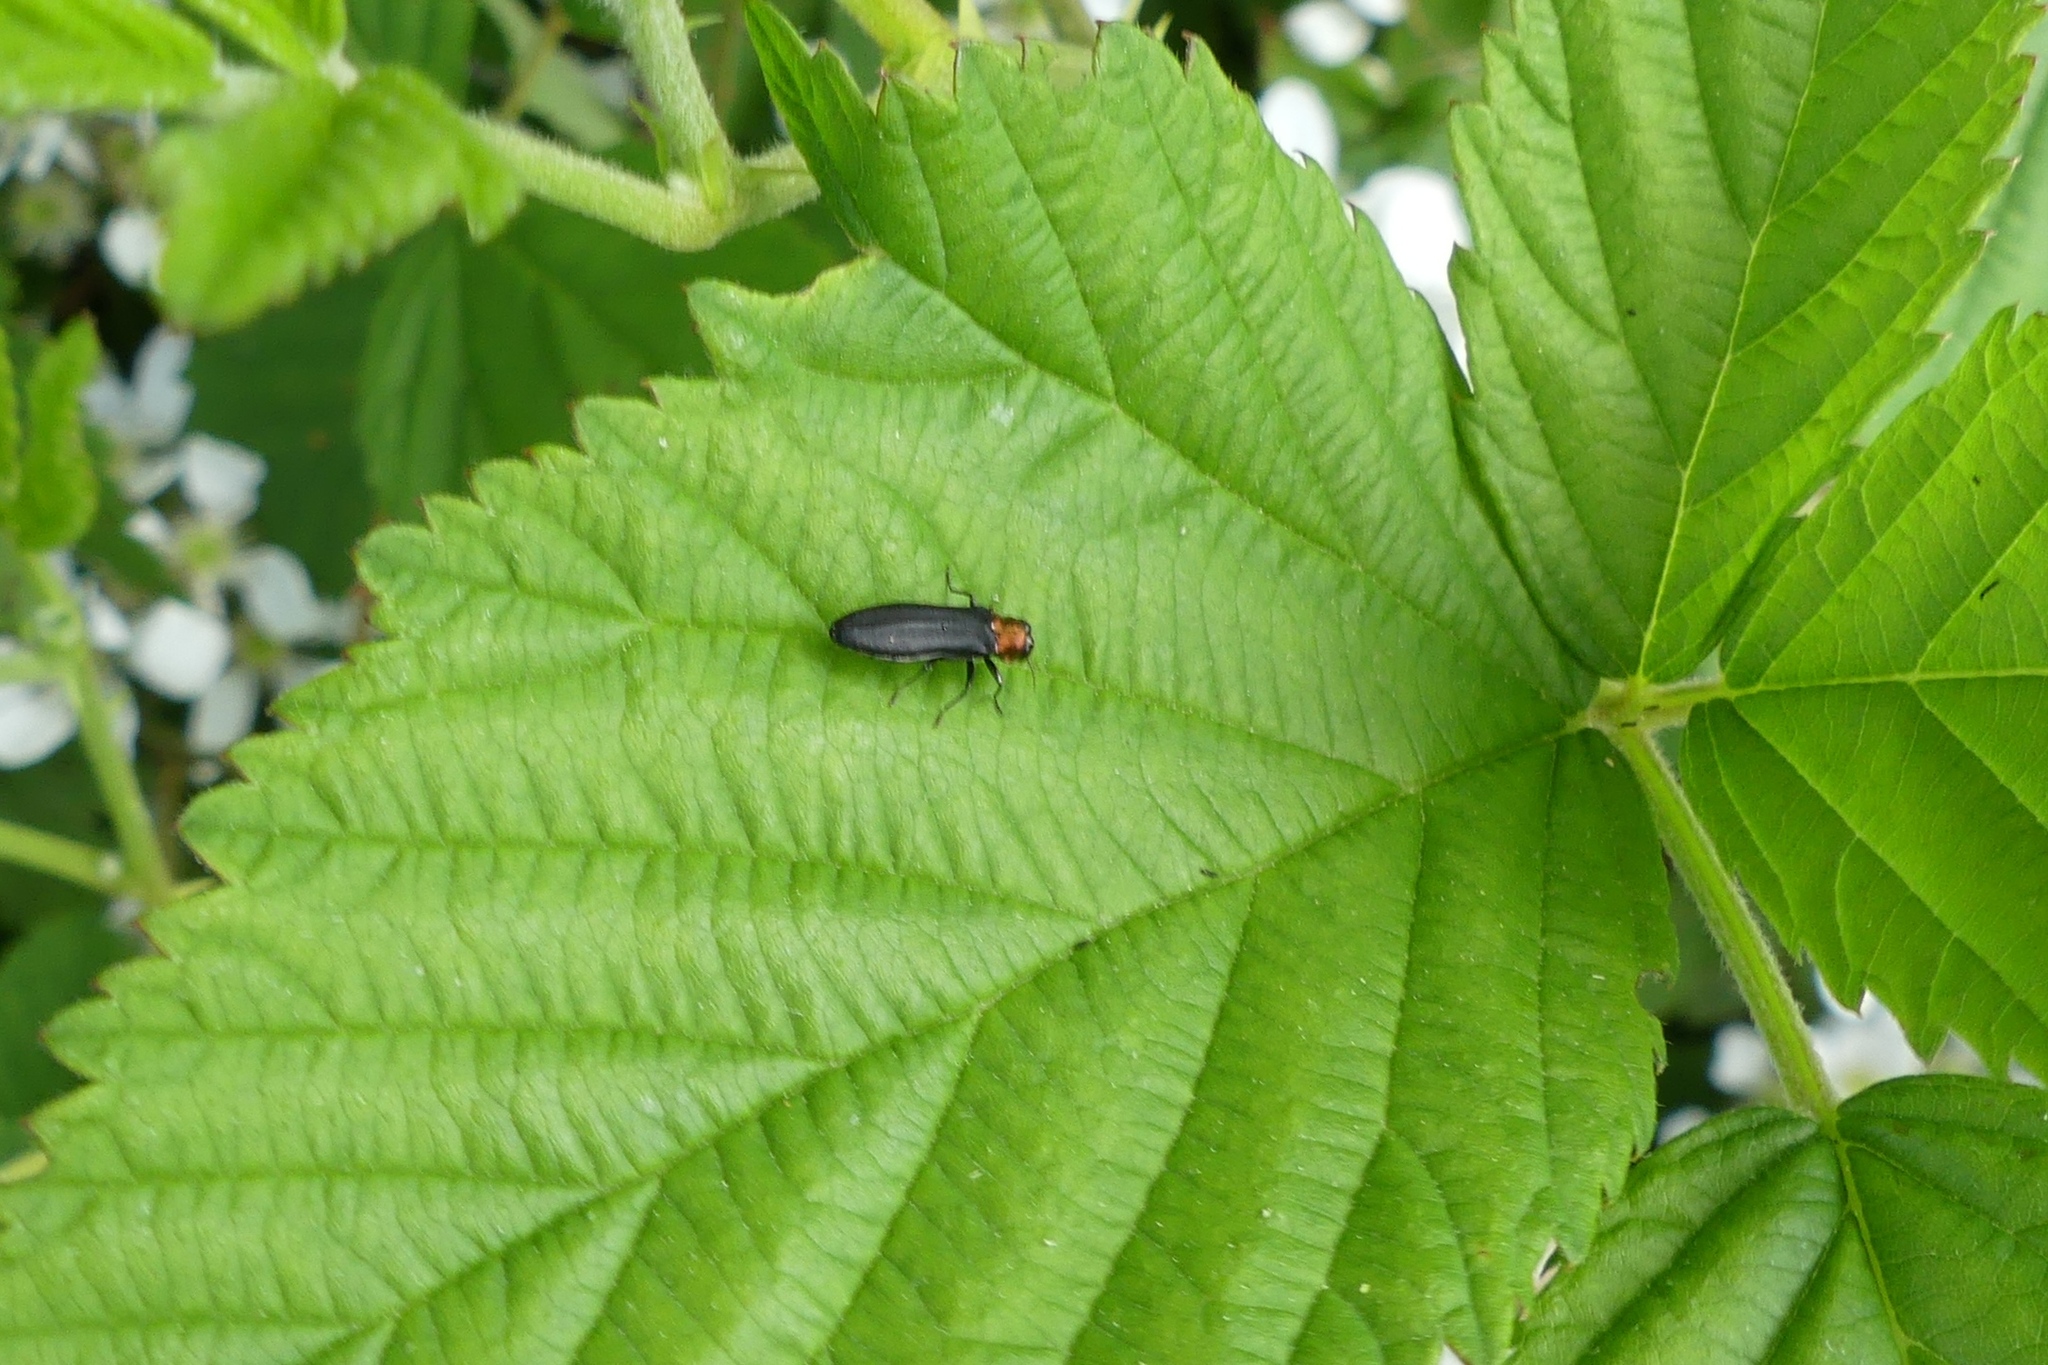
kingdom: Animalia
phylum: Arthropoda
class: Insecta
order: Coleoptera
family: Buprestidae
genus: Agrilus
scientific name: Agrilus ruficollis
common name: Red-necked cane borer beetle
